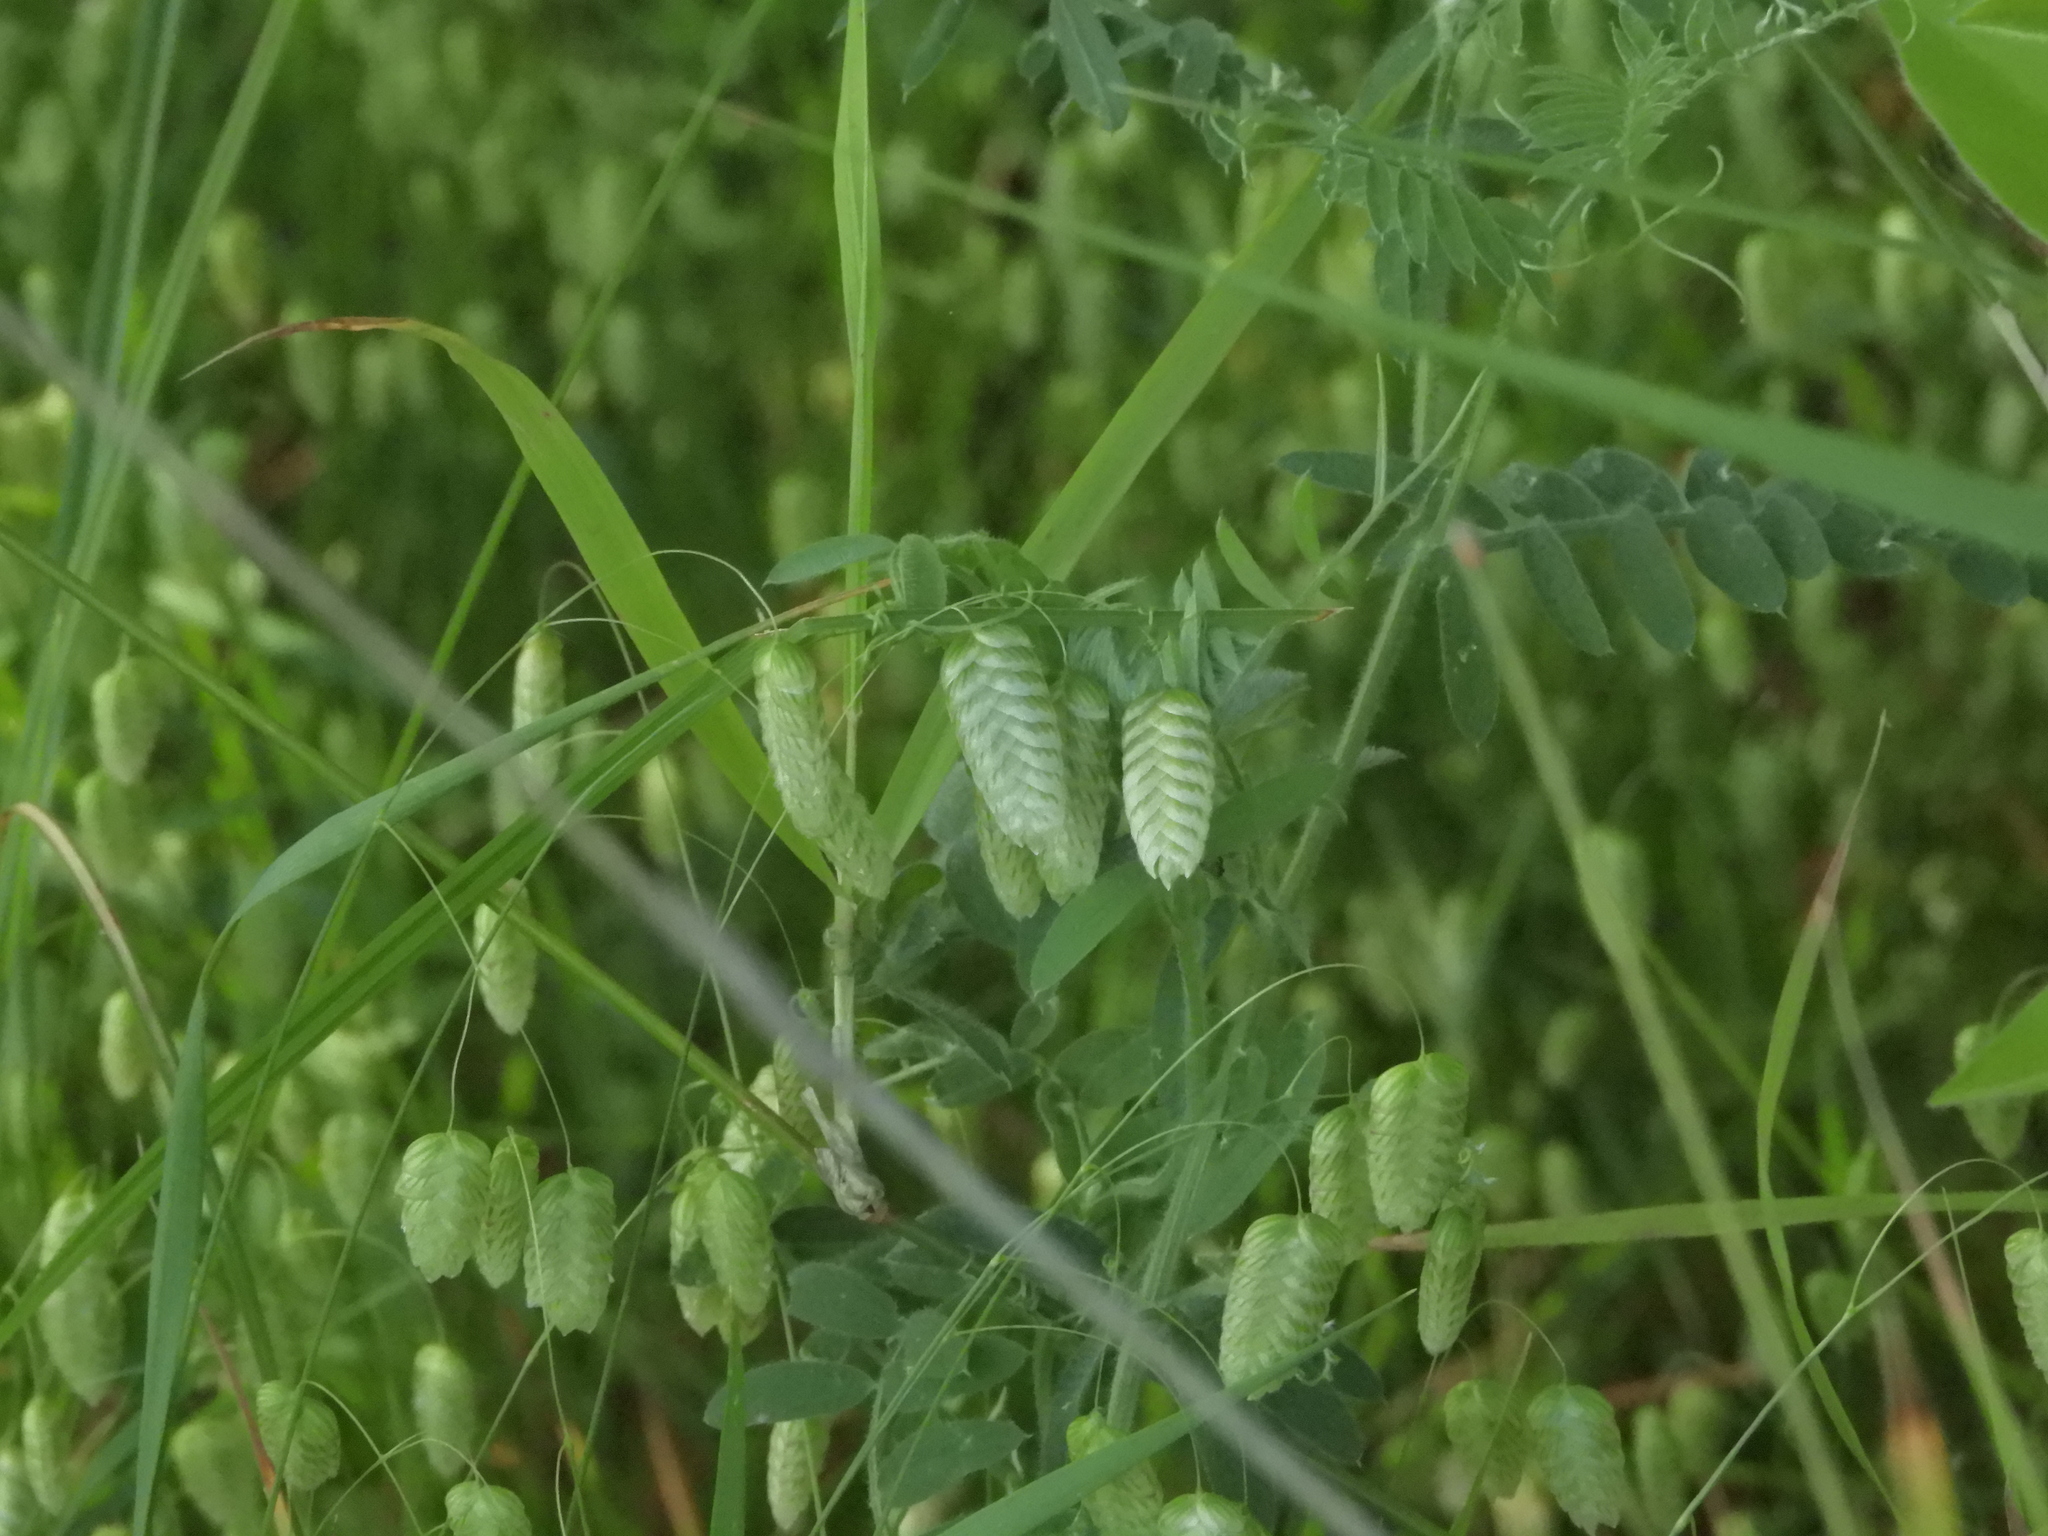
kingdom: Plantae
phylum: Tracheophyta
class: Liliopsida
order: Poales
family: Poaceae
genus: Briza
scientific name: Briza maxima
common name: Big quakinggrass
